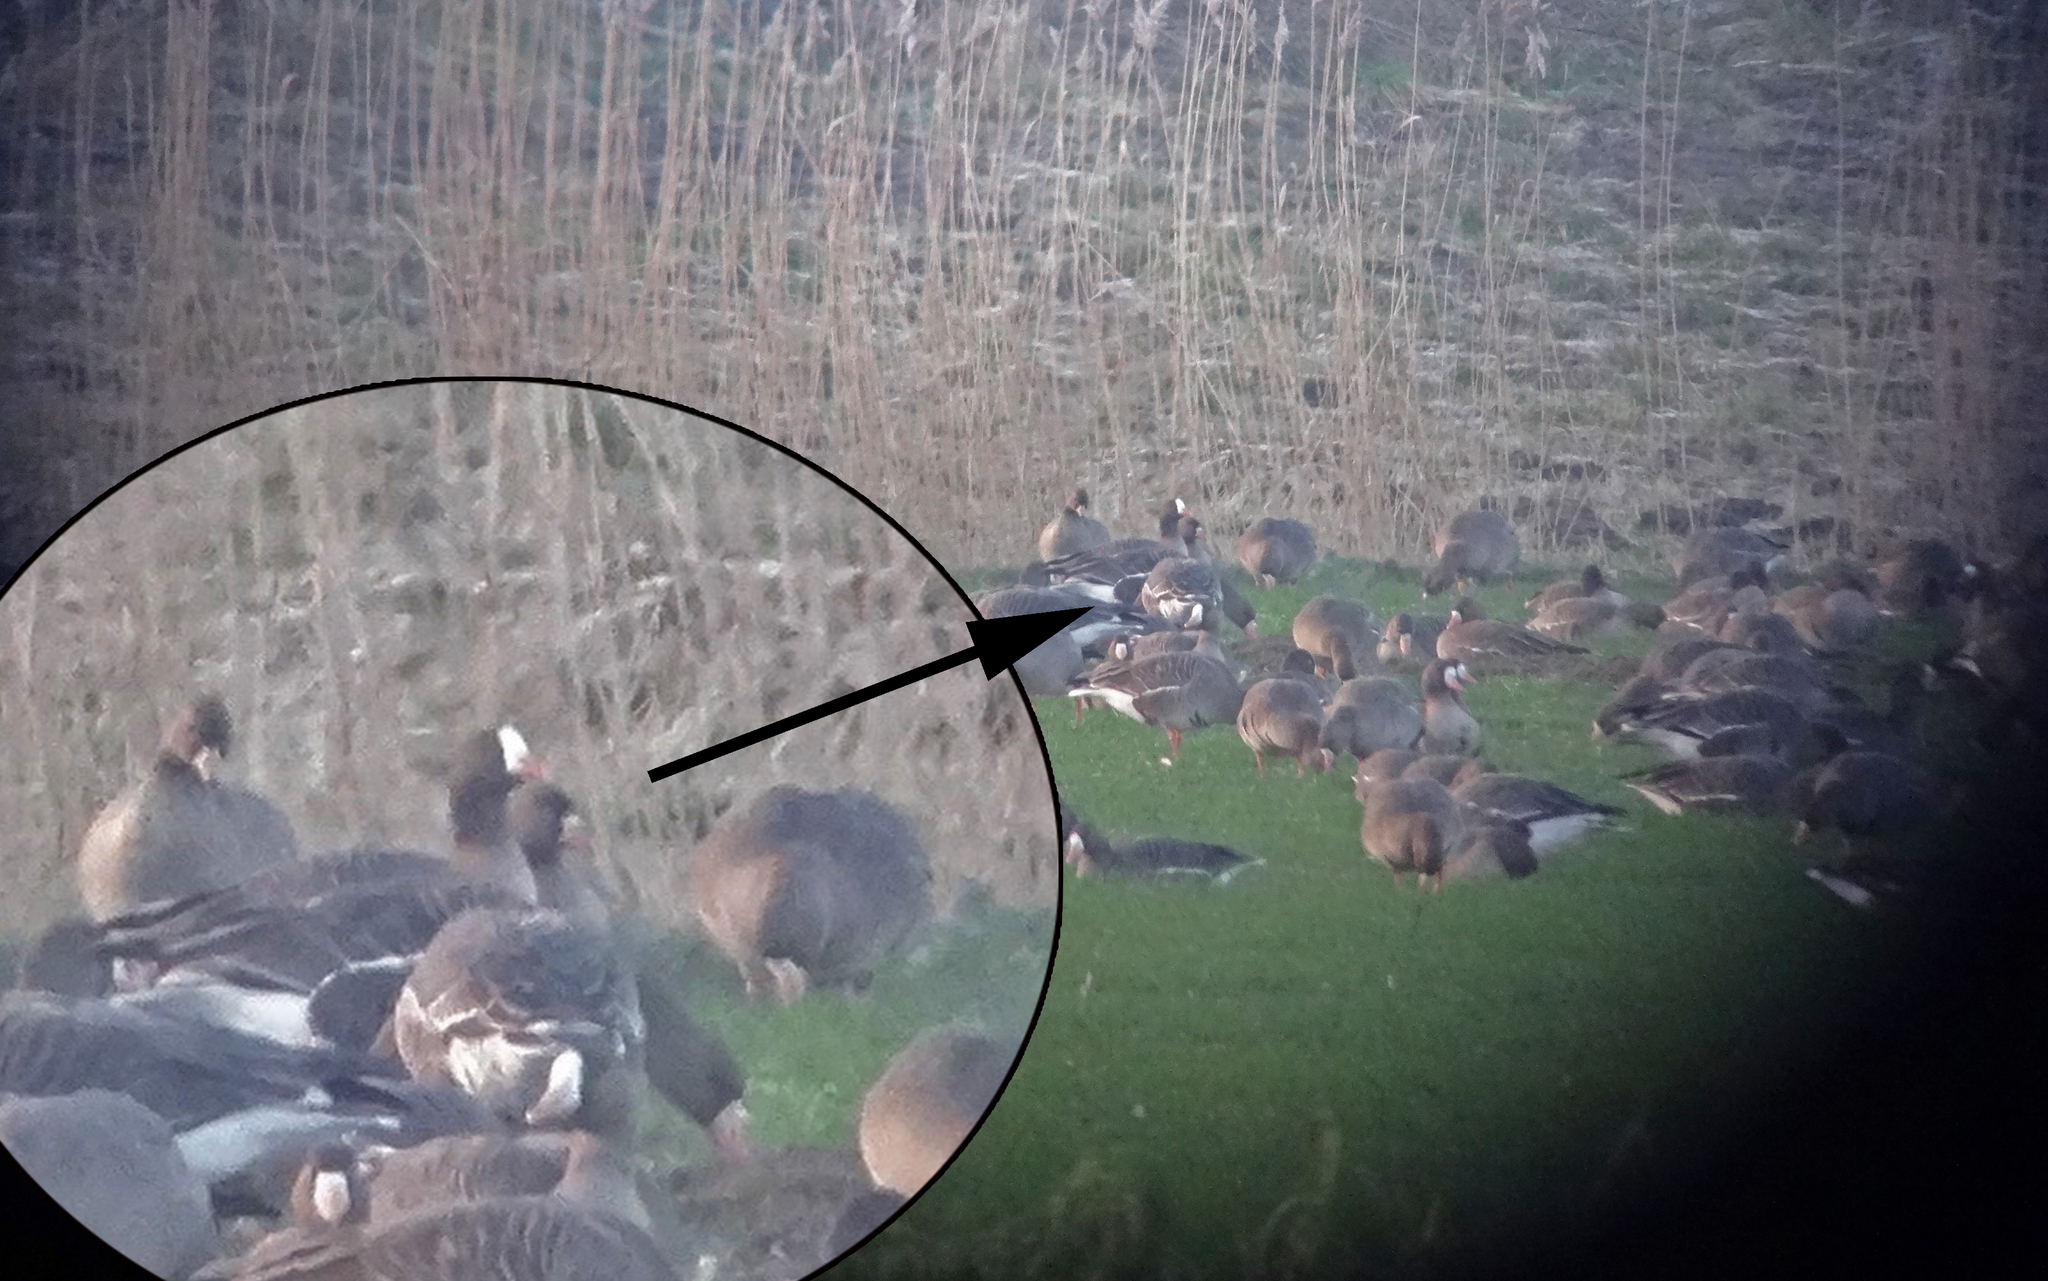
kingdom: Animalia
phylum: Chordata
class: Aves
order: Anseriformes
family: Anatidae
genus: Anser
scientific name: Anser erythropus
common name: Lesser white-fronted goose
